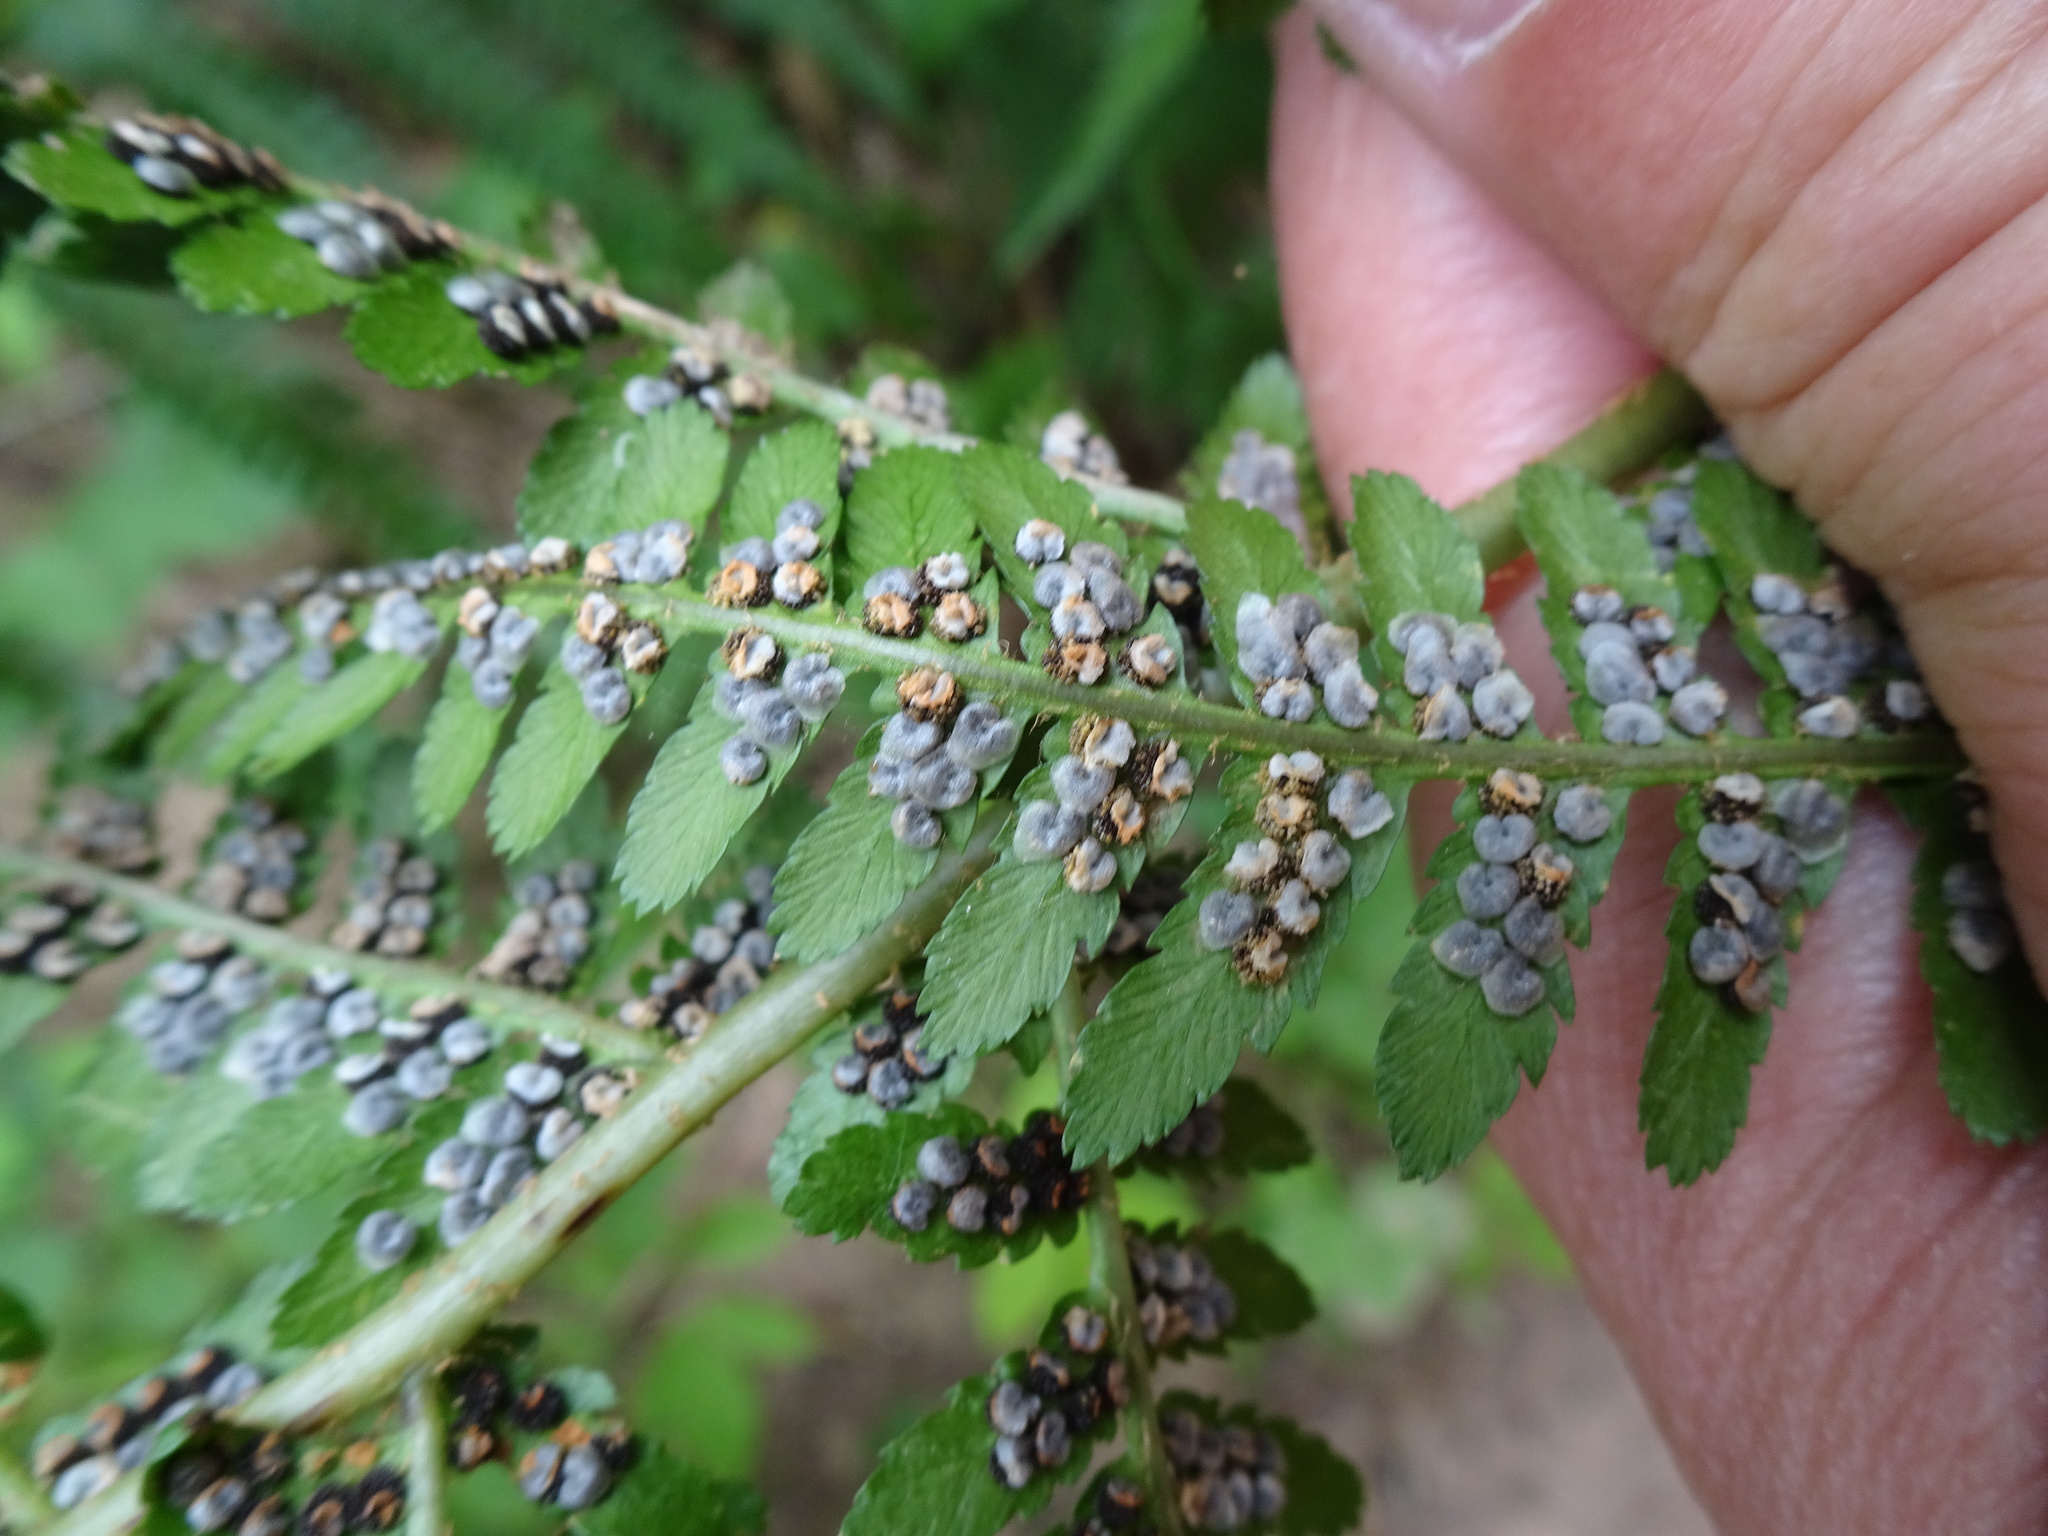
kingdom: Plantae
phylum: Tracheophyta
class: Polypodiopsida
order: Polypodiales
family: Dryopteridaceae
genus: Dryopteris
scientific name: Dryopteris filix-mas
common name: Male fern
